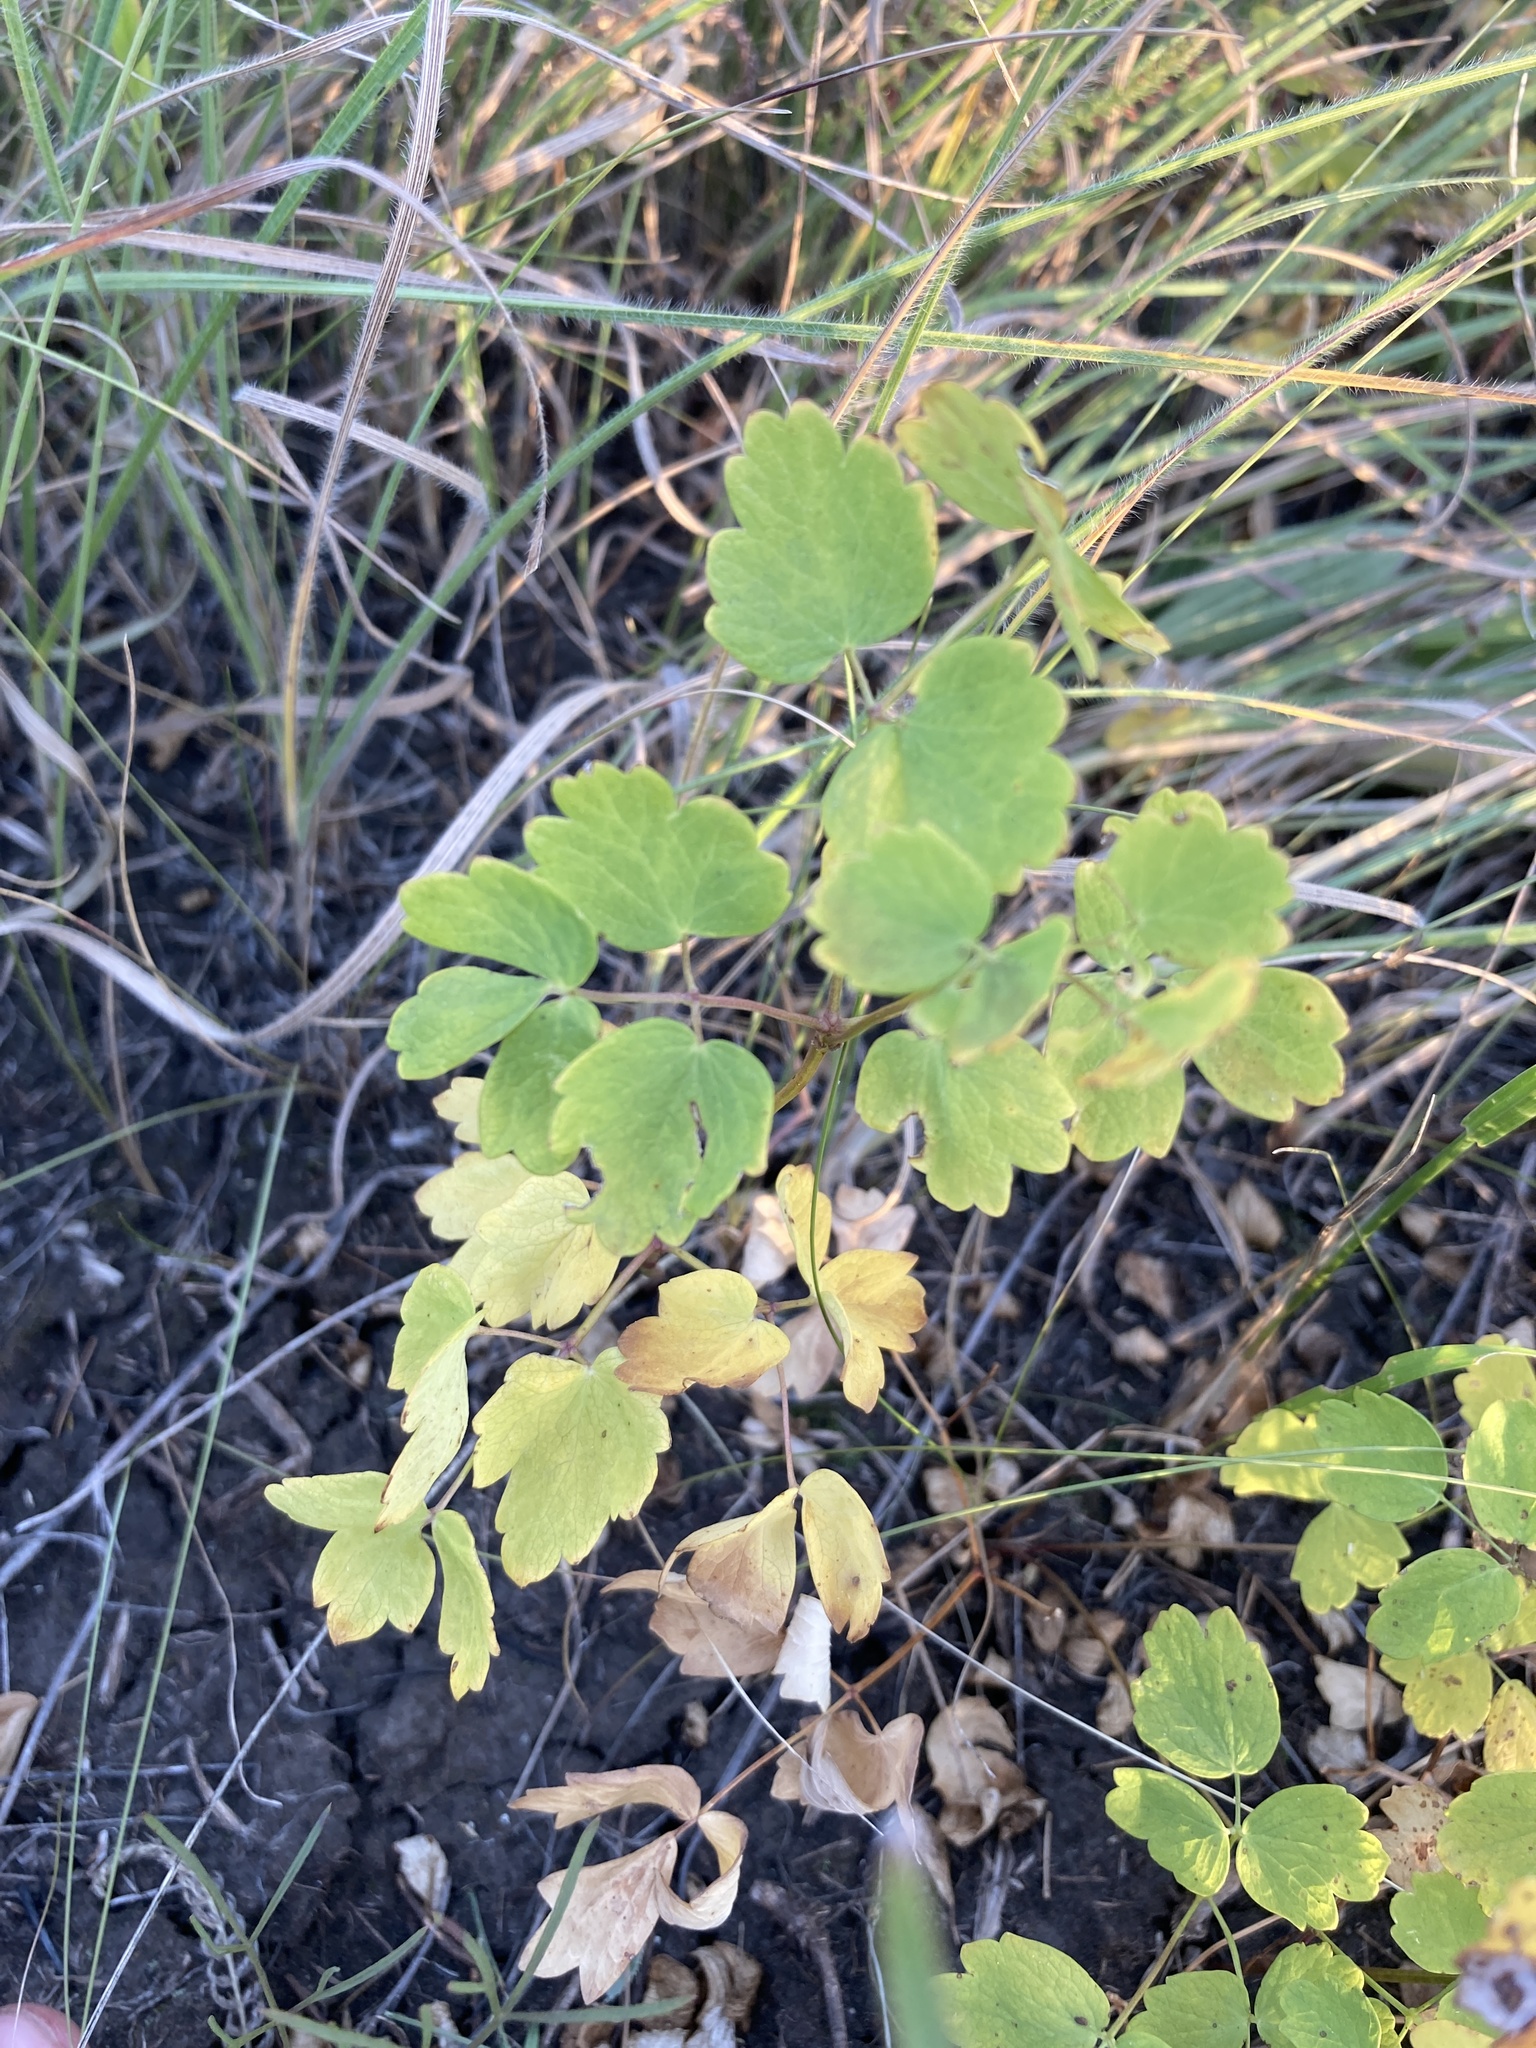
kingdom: Plantae
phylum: Tracheophyta
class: Magnoliopsida
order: Ranunculales
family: Ranunculaceae
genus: Thalictrum
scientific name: Thalictrum minus
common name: Lesser meadow-rue
